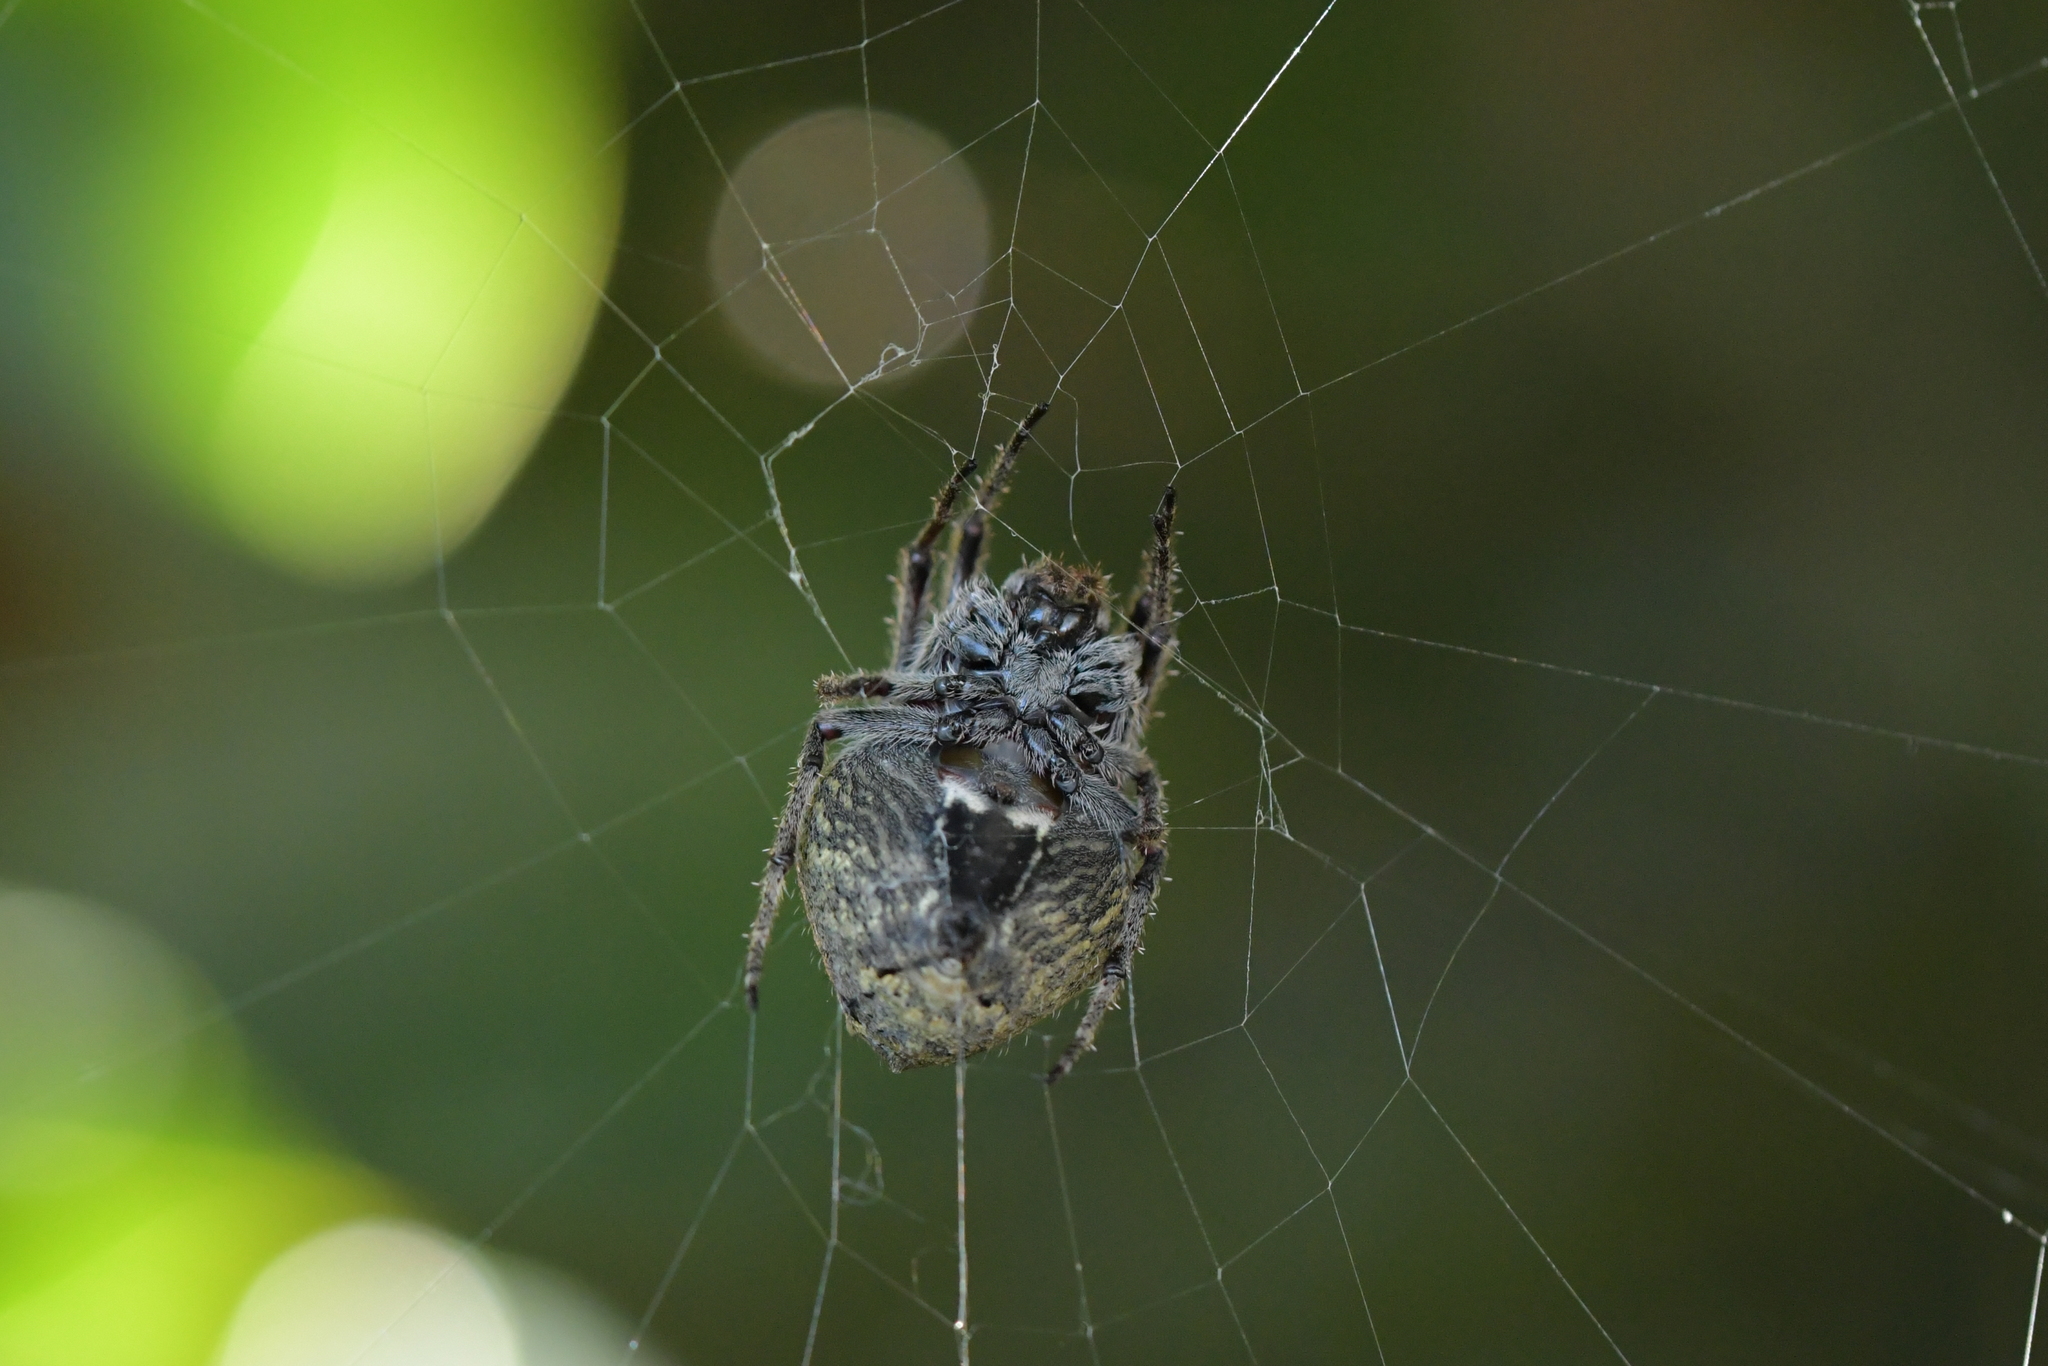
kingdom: Animalia
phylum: Arthropoda
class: Arachnida
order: Araneae
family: Araneidae
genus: Eriophora
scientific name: Eriophora pustulosa
